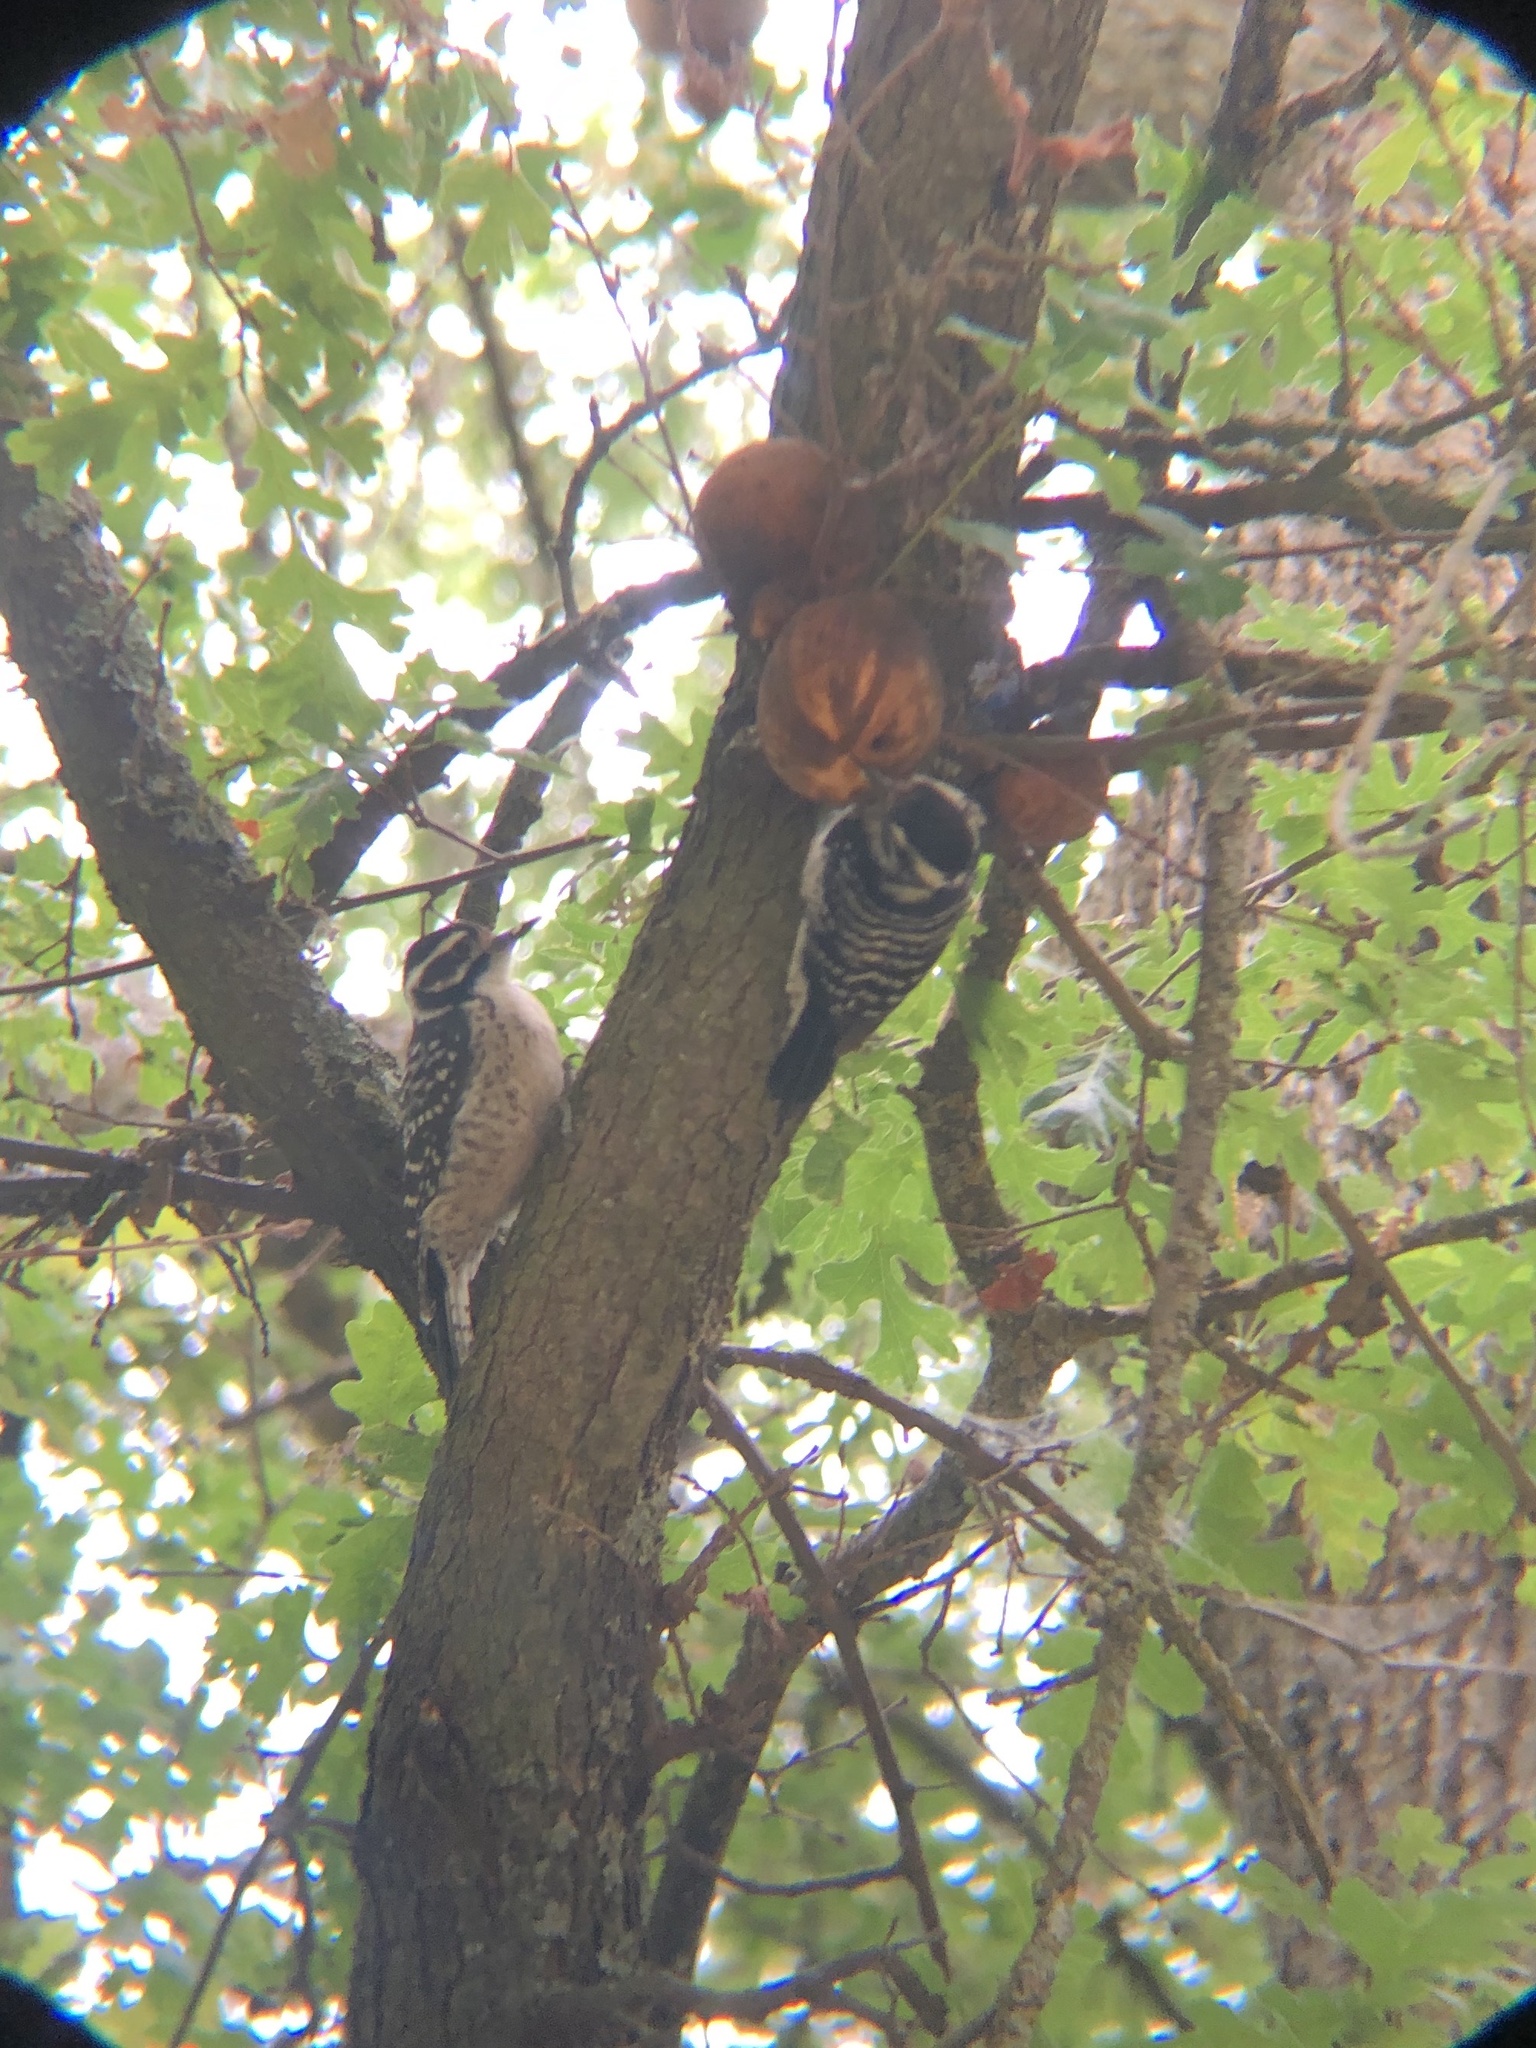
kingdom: Animalia
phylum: Chordata
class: Aves
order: Piciformes
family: Picidae
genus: Dryobates
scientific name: Dryobates nuttallii
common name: Nuttall's woodpecker
